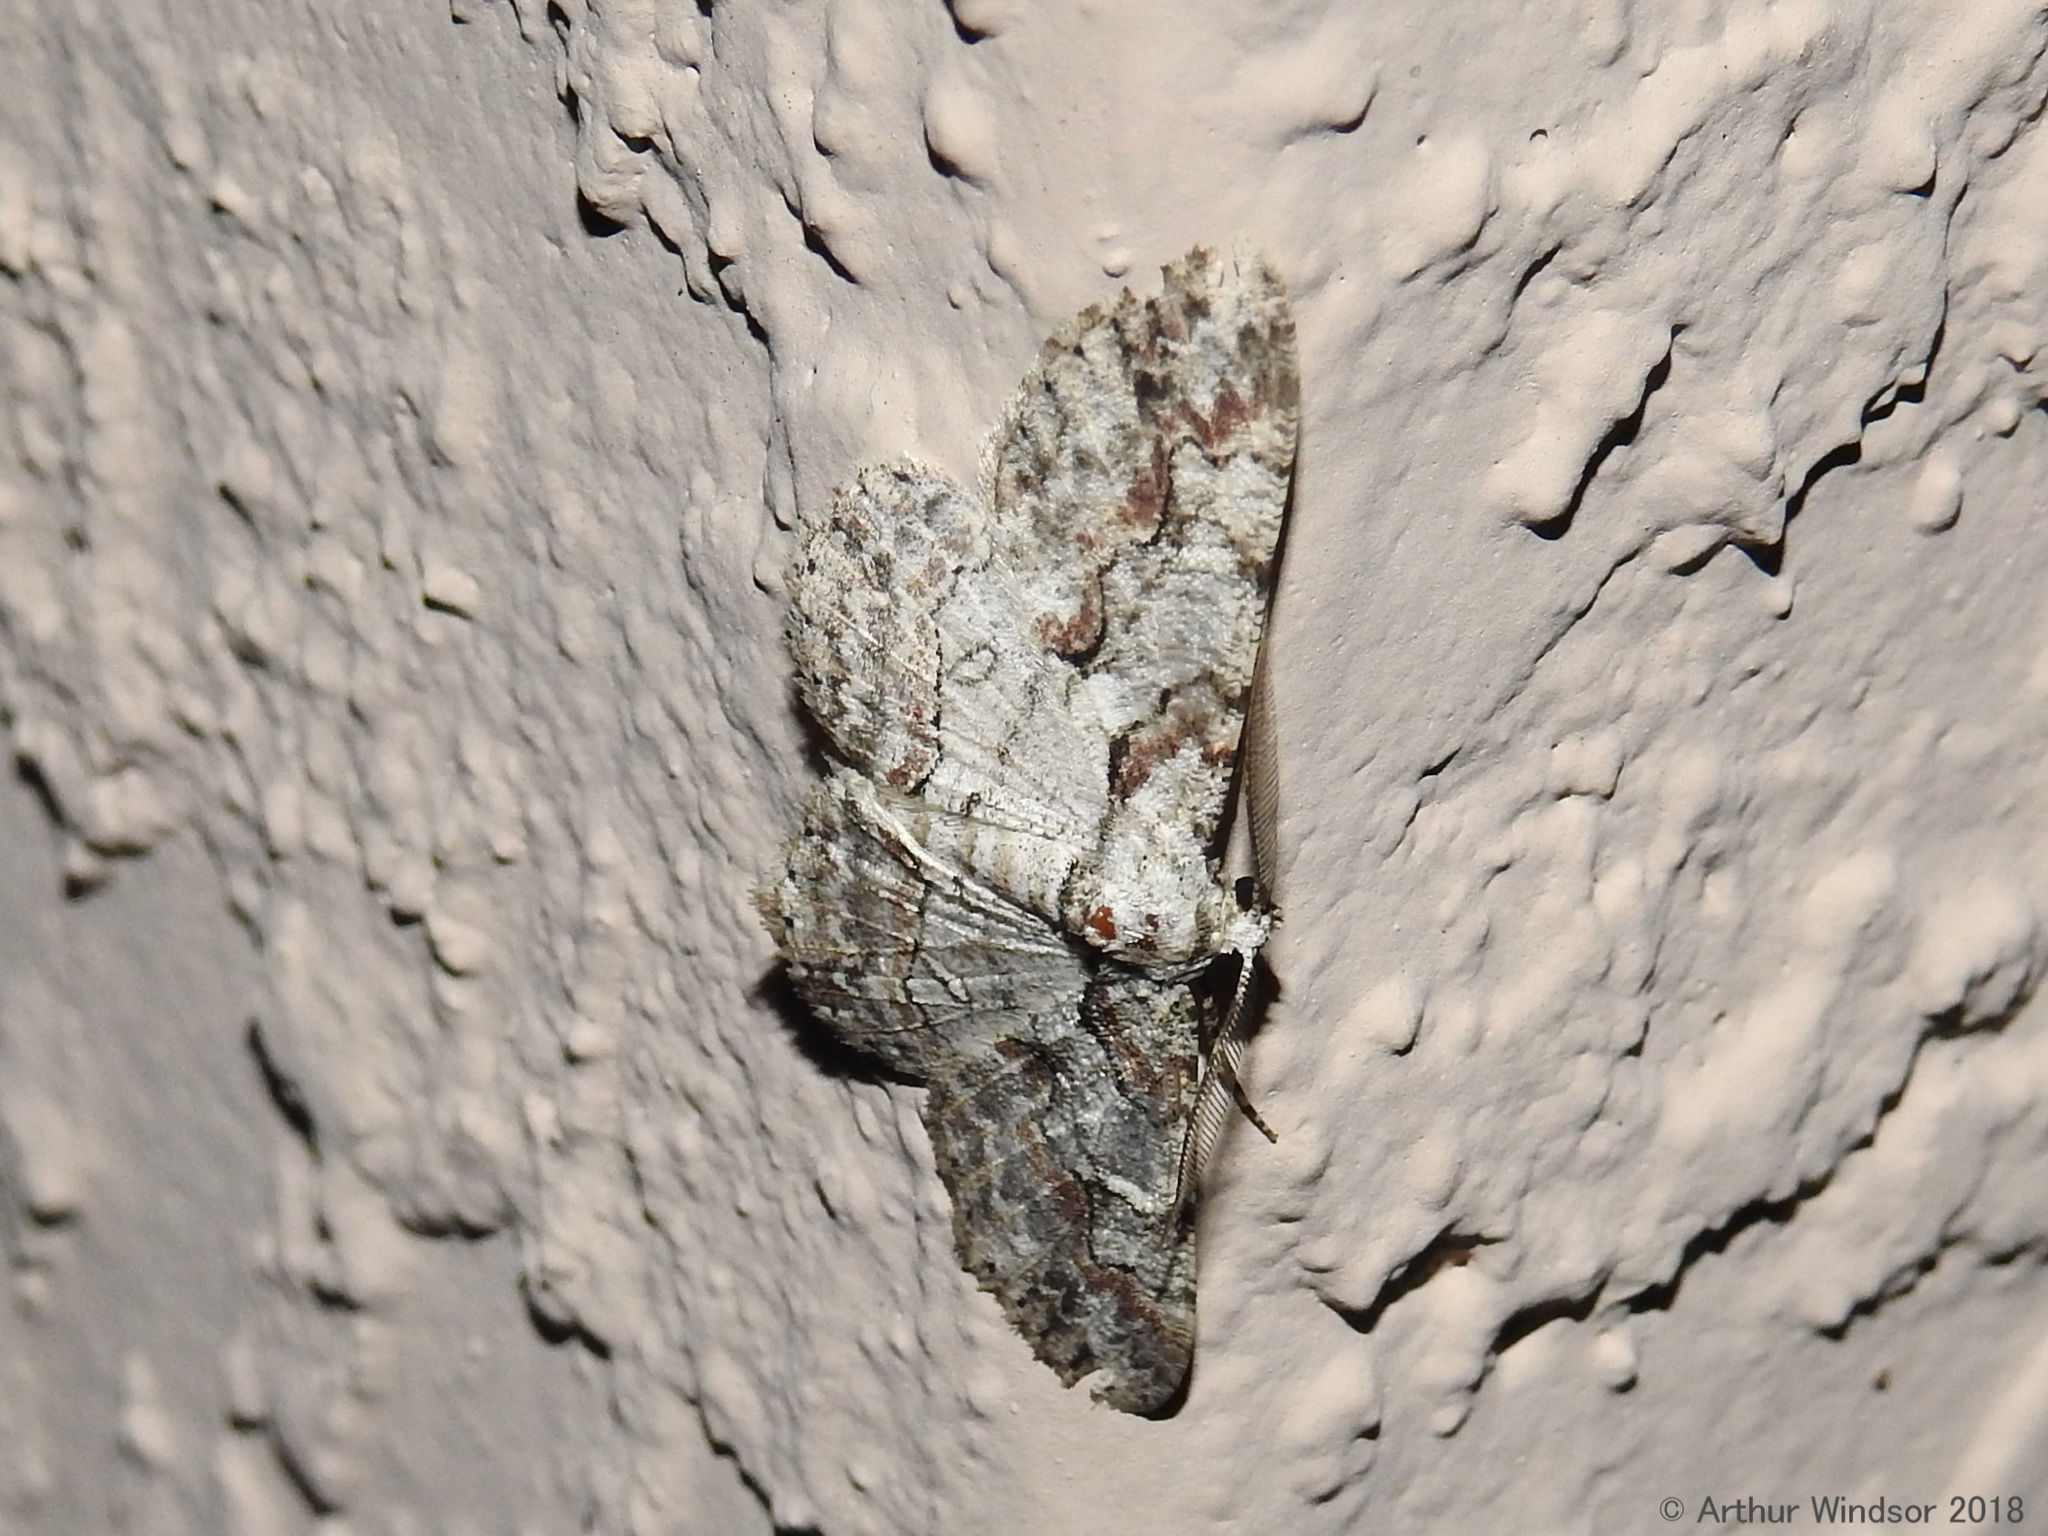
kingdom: Animalia
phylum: Arthropoda
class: Insecta
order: Lepidoptera
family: Geometridae
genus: Iridopsis
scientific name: Iridopsis defectaria
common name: Brown-shaded gray
